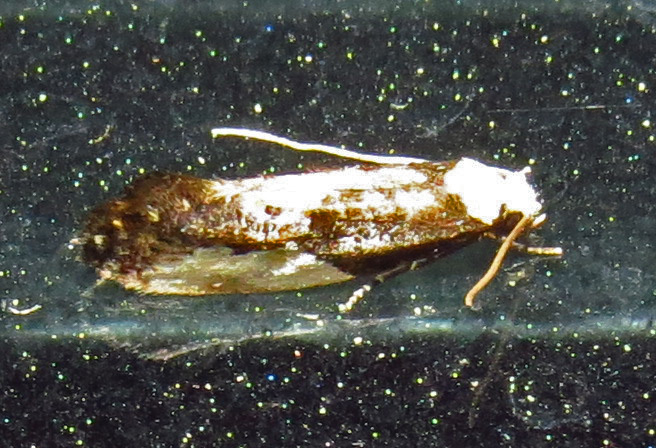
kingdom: Animalia
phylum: Arthropoda
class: Insecta
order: Lepidoptera
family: Tineidae
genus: Monopis
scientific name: Monopis longella
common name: Pavlovski's monopis moth
